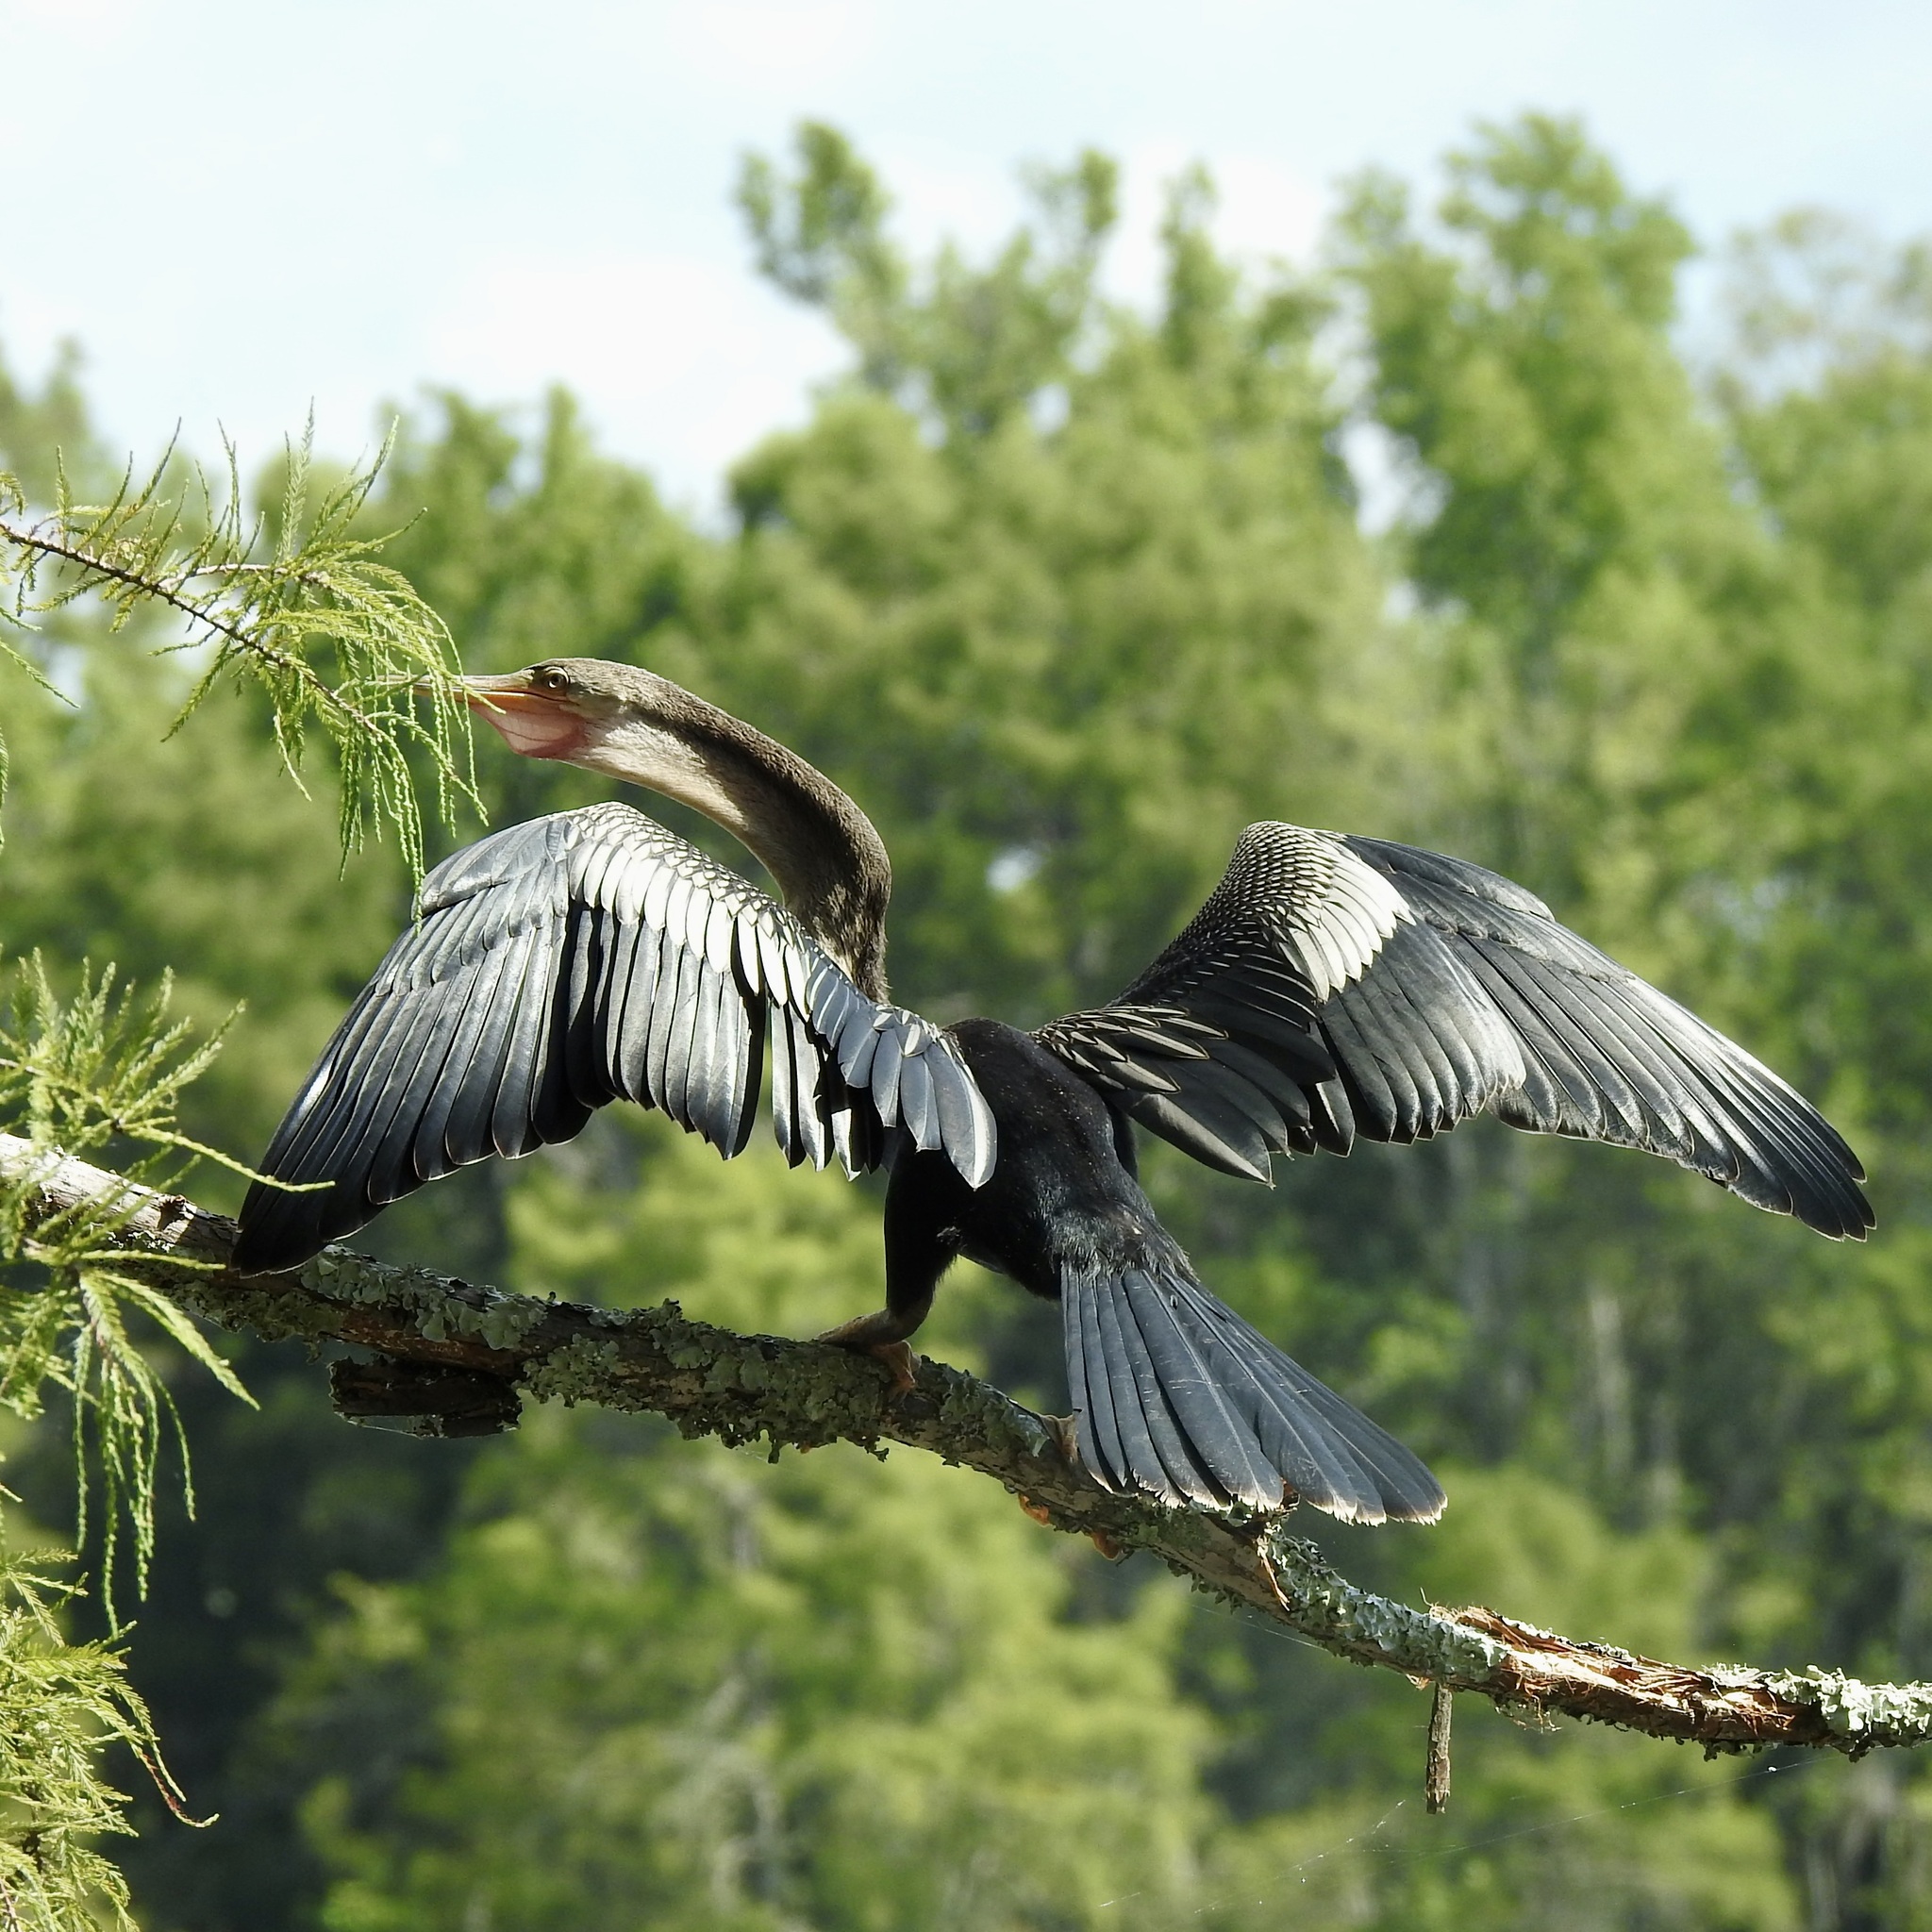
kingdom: Animalia
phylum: Chordata
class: Aves
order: Suliformes
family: Anhingidae
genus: Anhinga
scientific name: Anhinga anhinga
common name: Anhinga
